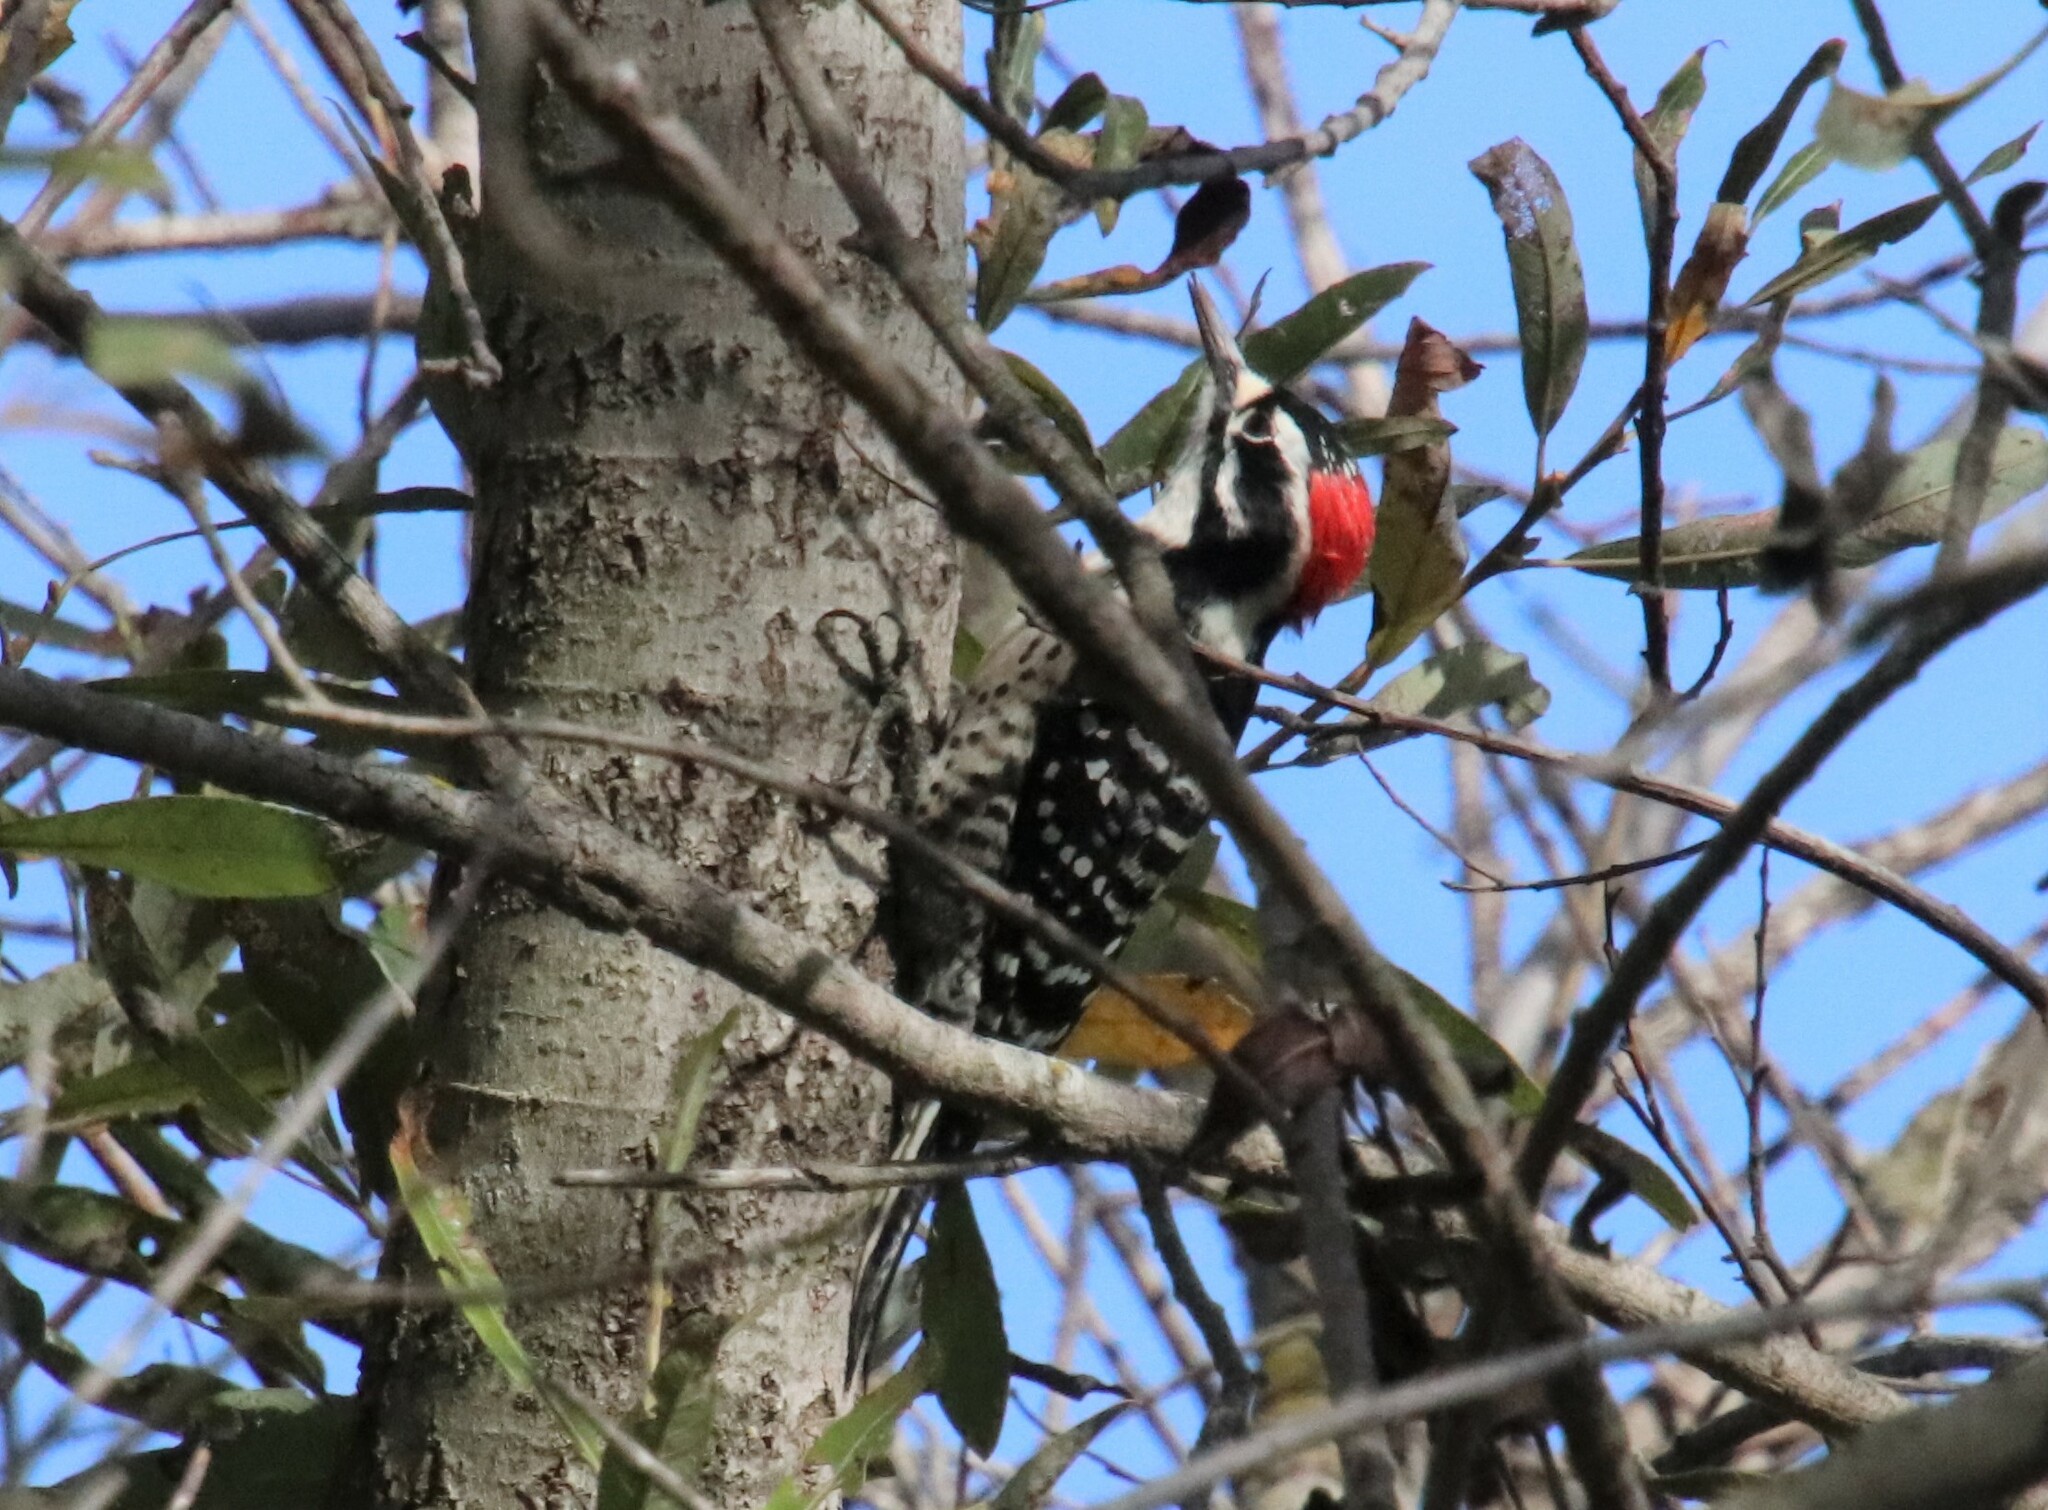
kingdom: Animalia
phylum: Chordata
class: Aves
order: Piciformes
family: Picidae
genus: Dryobates
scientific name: Dryobates nuttallii
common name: Nuttall's woodpecker
